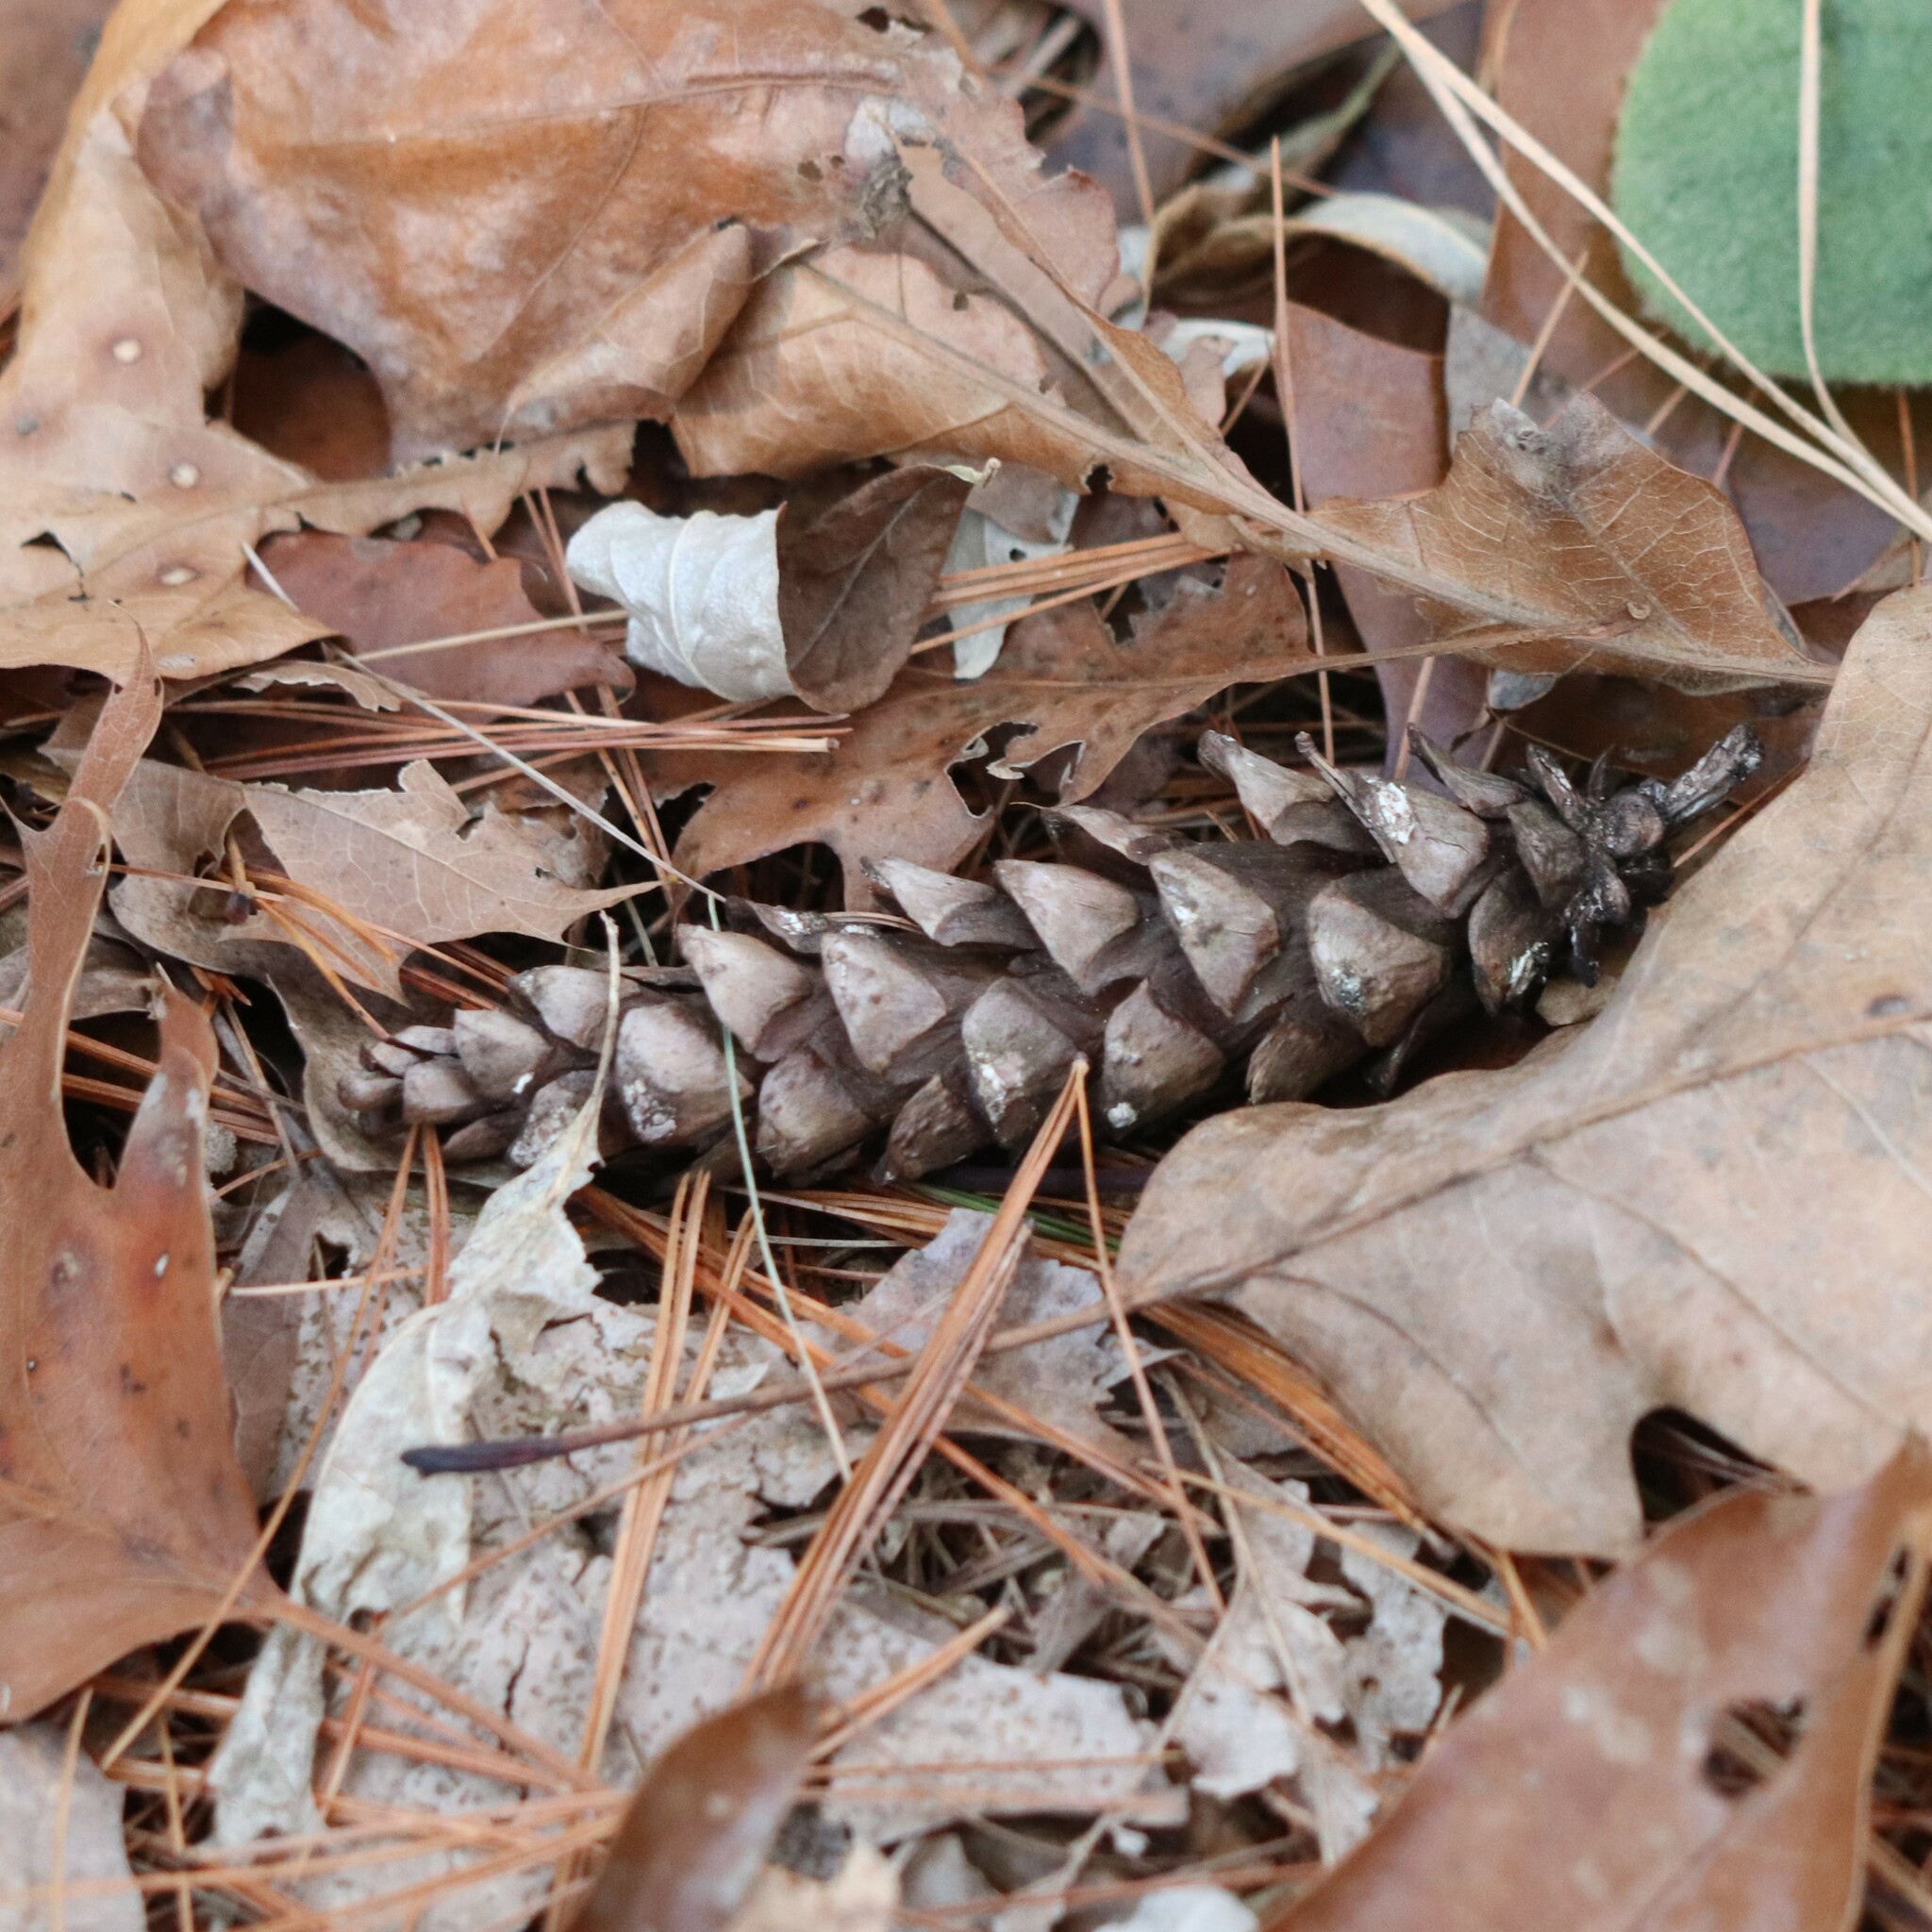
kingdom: Plantae
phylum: Tracheophyta
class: Pinopsida
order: Pinales
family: Pinaceae
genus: Pinus
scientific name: Pinus strobus
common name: Weymouth pine
